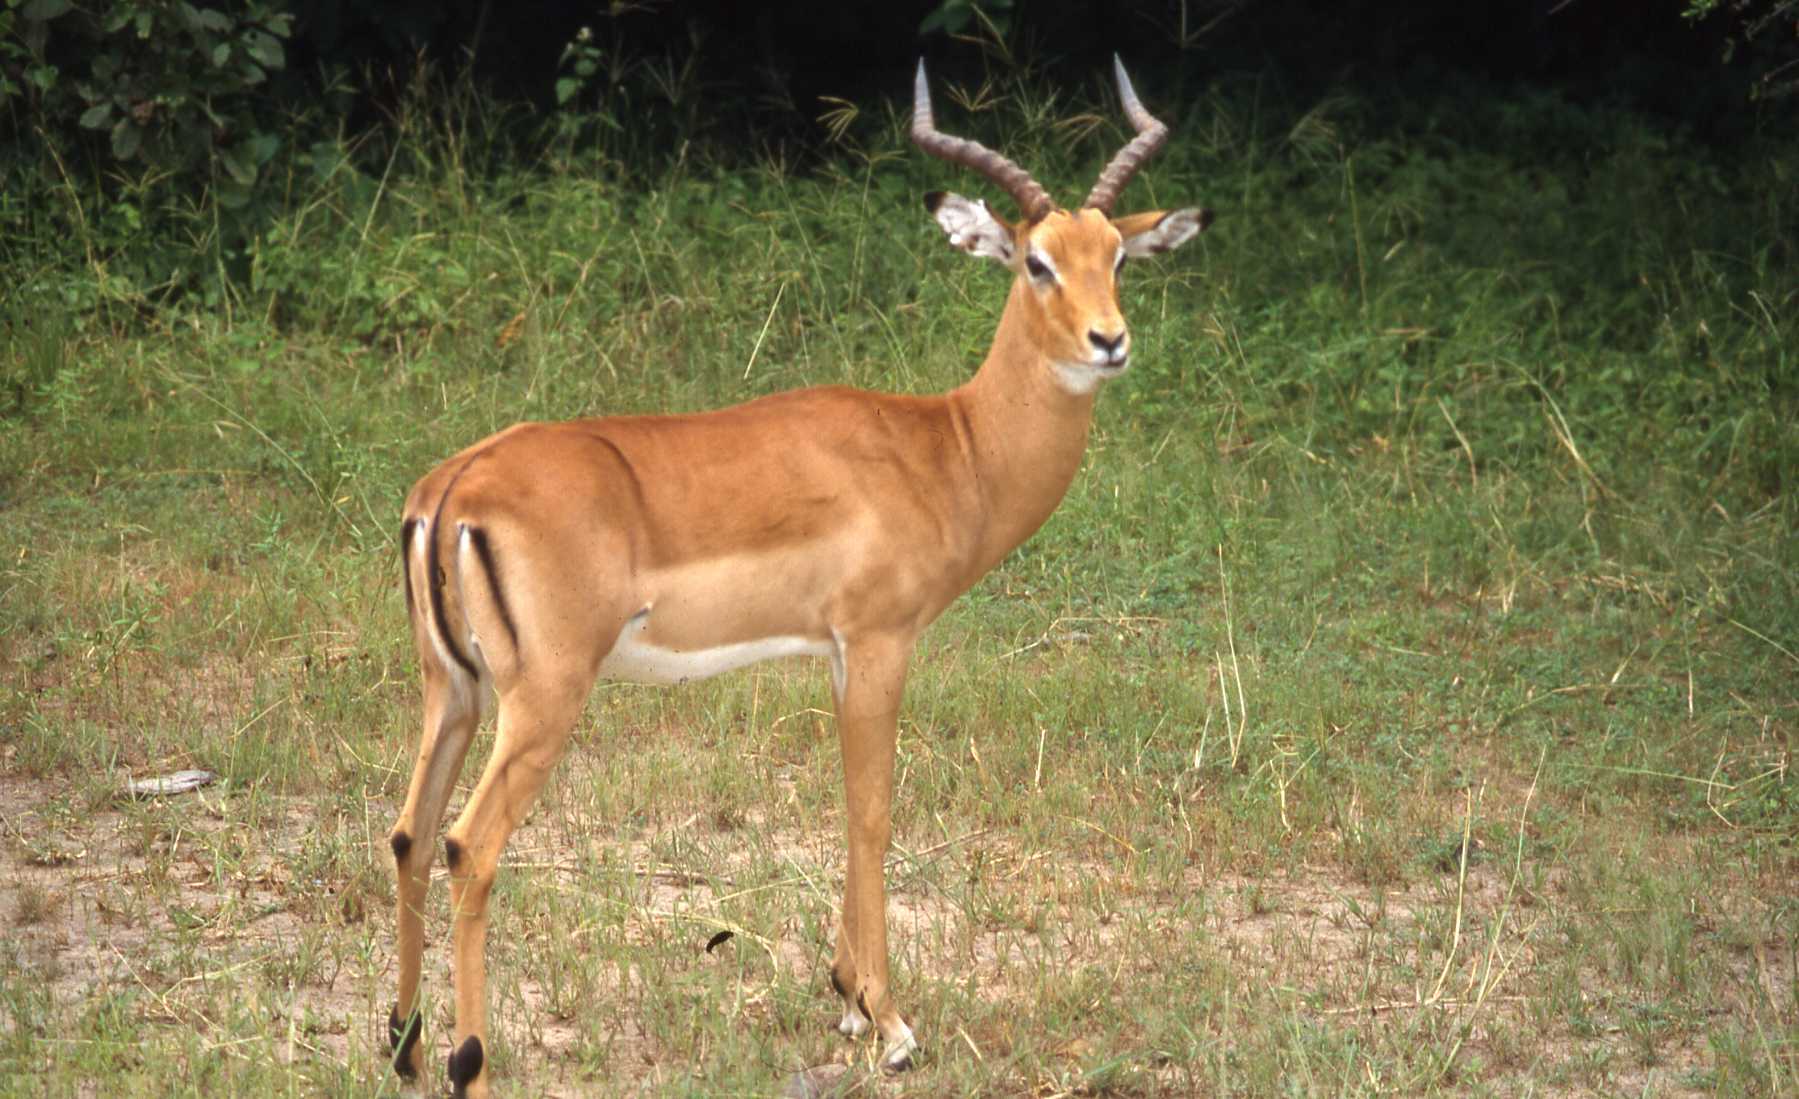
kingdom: Animalia
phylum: Chordata
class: Mammalia
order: Artiodactyla
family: Bovidae
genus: Aepyceros
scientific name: Aepyceros melampus
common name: Impala
